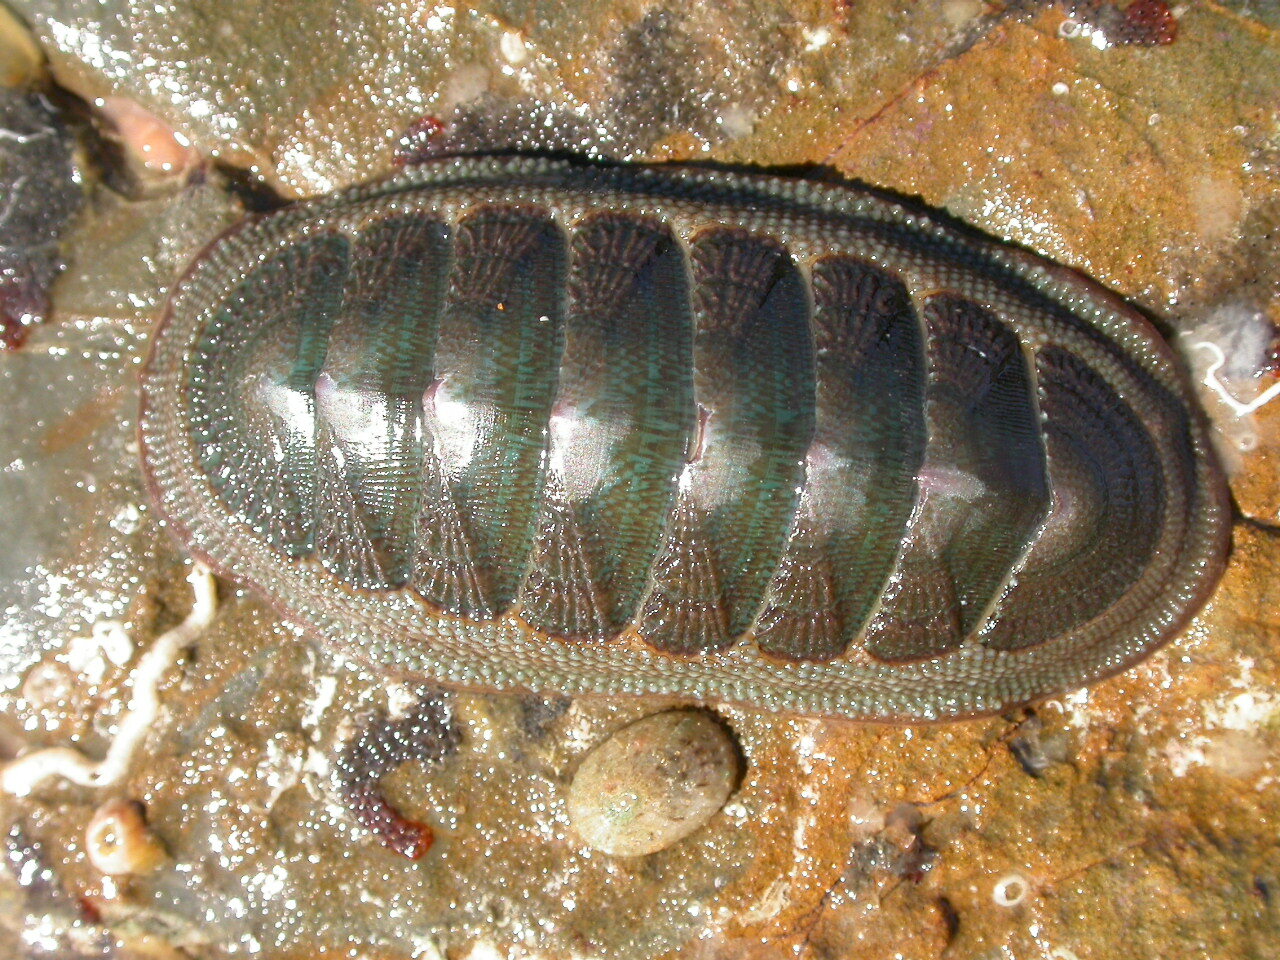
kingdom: Animalia
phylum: Mollusca
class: Polyplacophora
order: Chitonida
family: Ischnochitonidae
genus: Ischnochiton
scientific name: Ischnochiton australis
